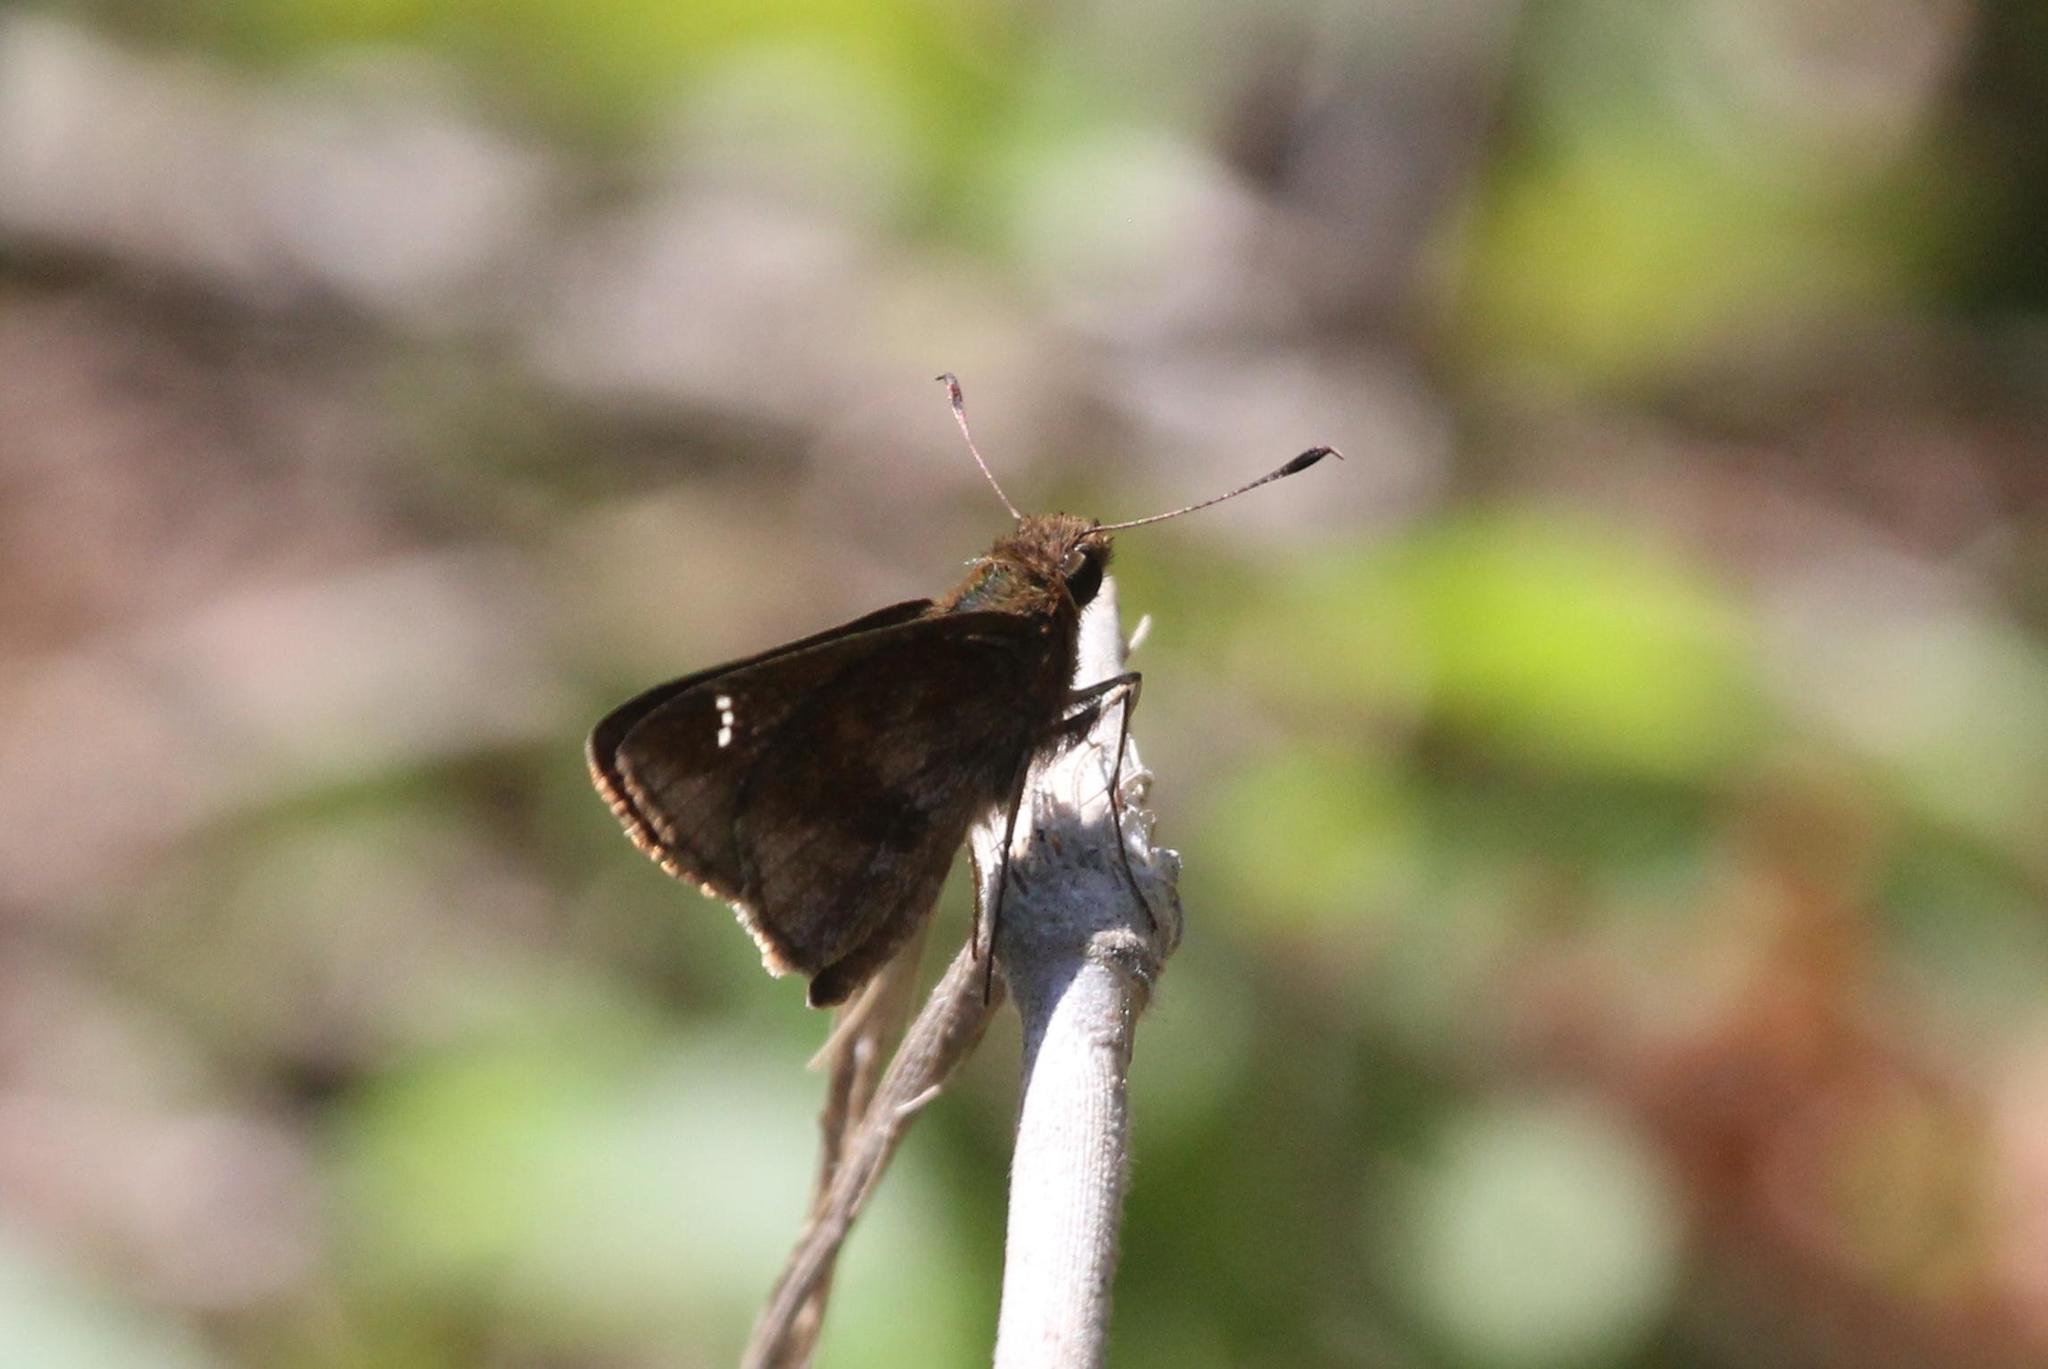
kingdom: Animalia
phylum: Arthropoda
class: Insecta
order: Lepidoptera
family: Hesperiidae
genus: Lerema
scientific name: Lerema accius
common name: Clouded skipper
